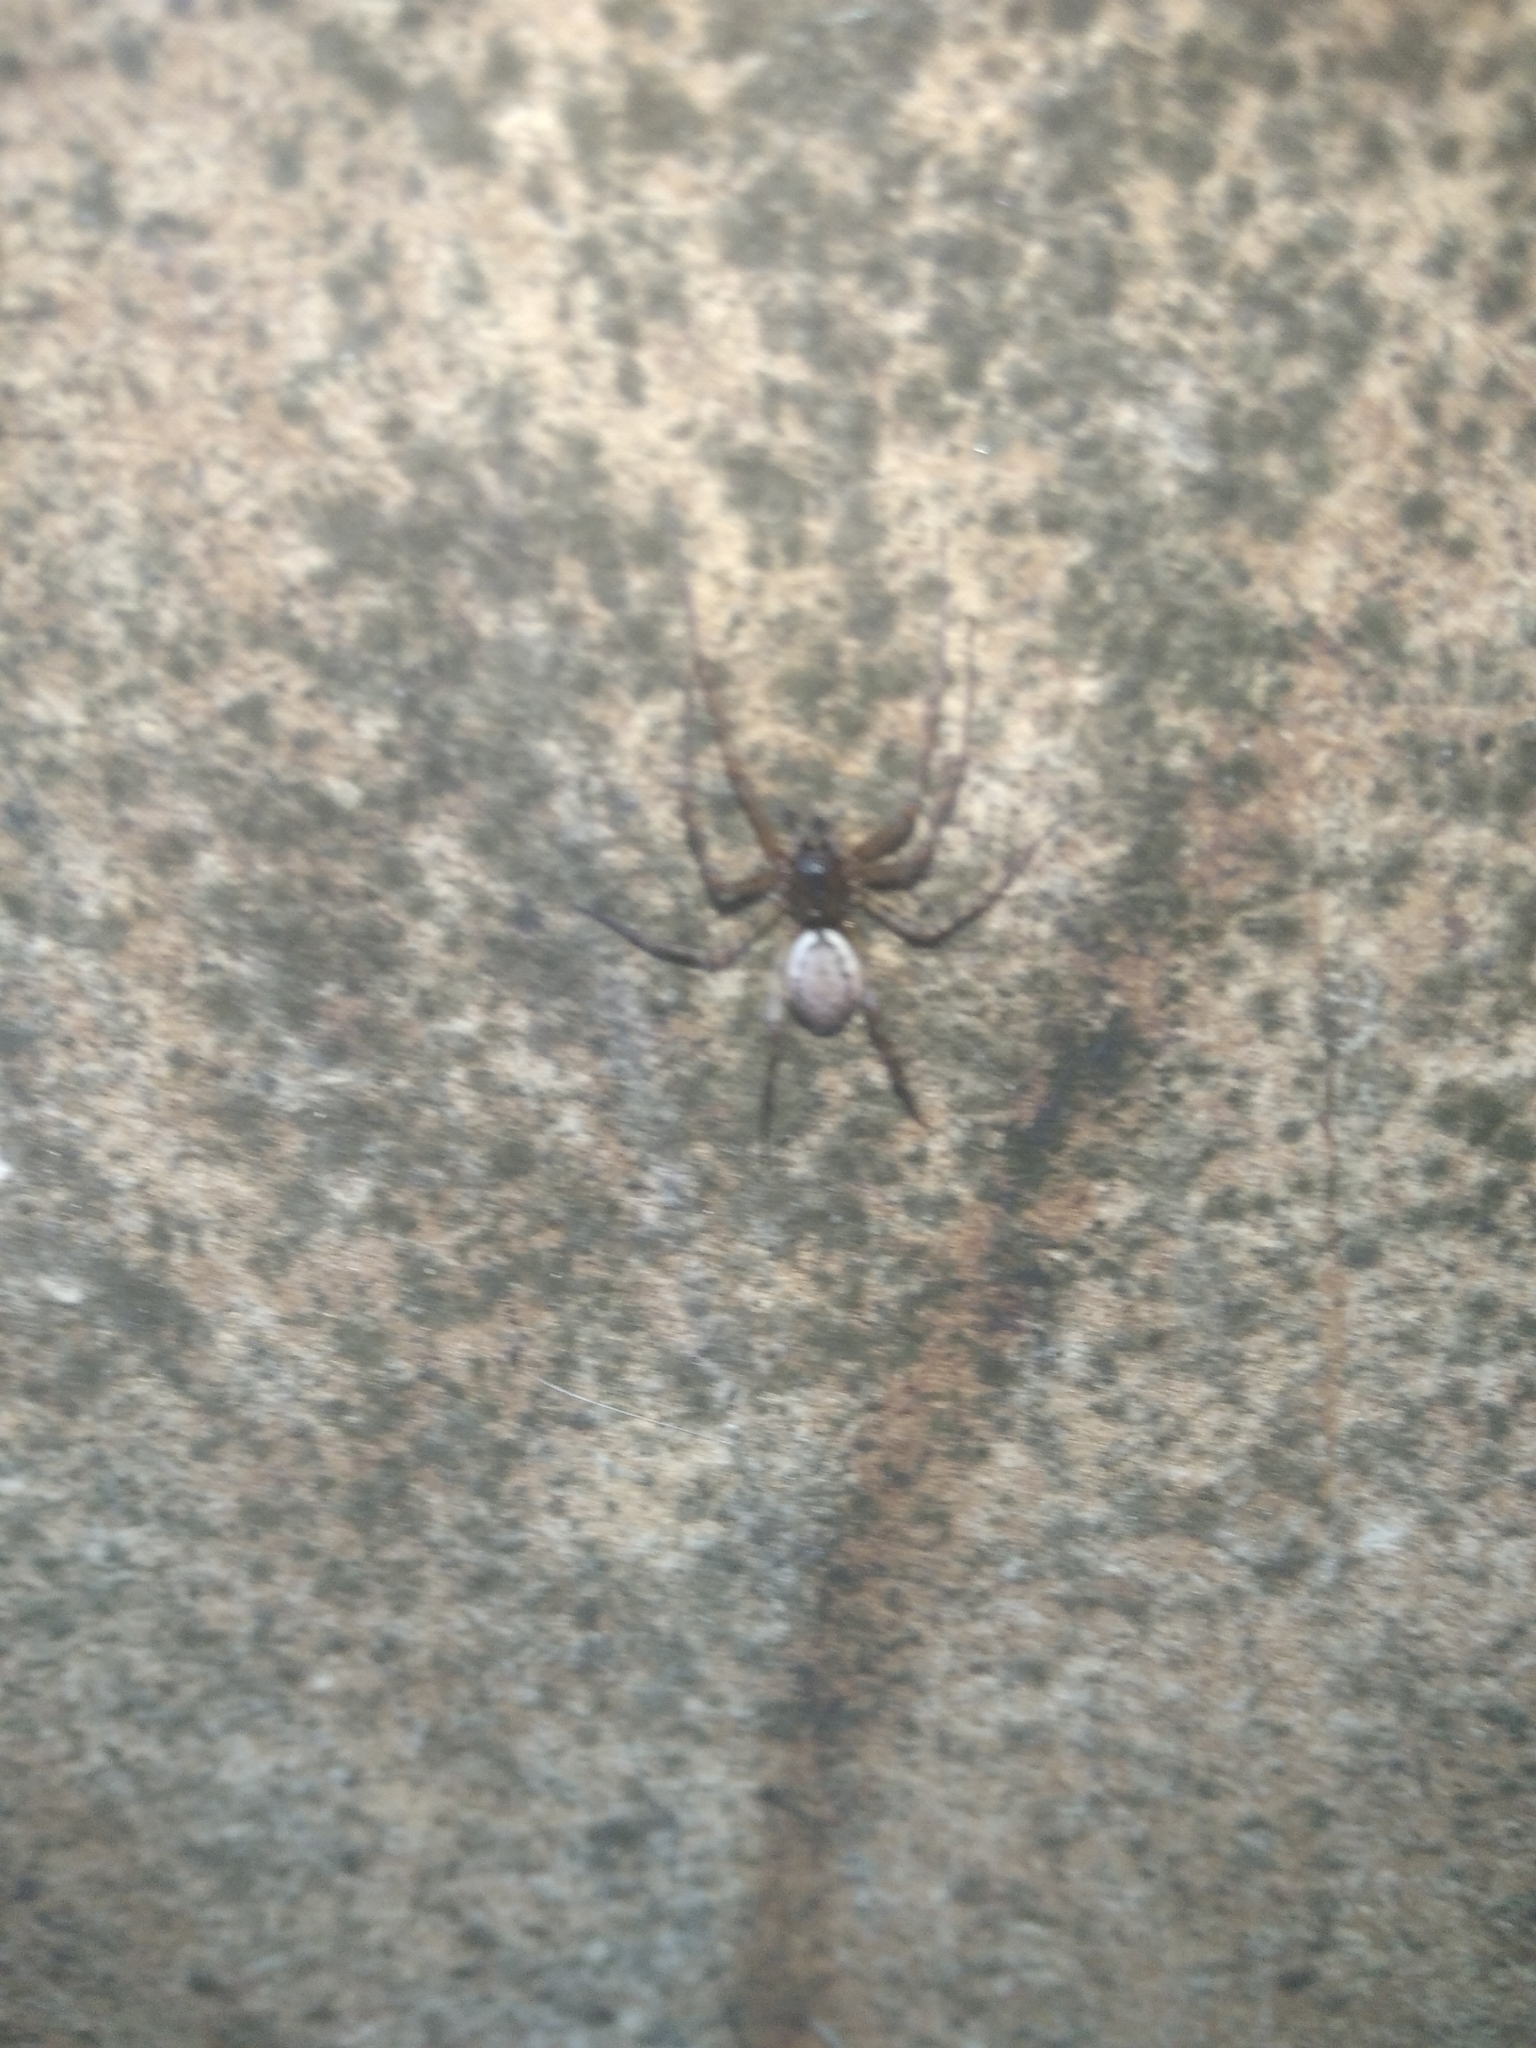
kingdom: Animalia
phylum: Arthropoda
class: Arachnida
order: Araneae
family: Linyphiidae
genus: Neriene
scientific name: Neriene montana
